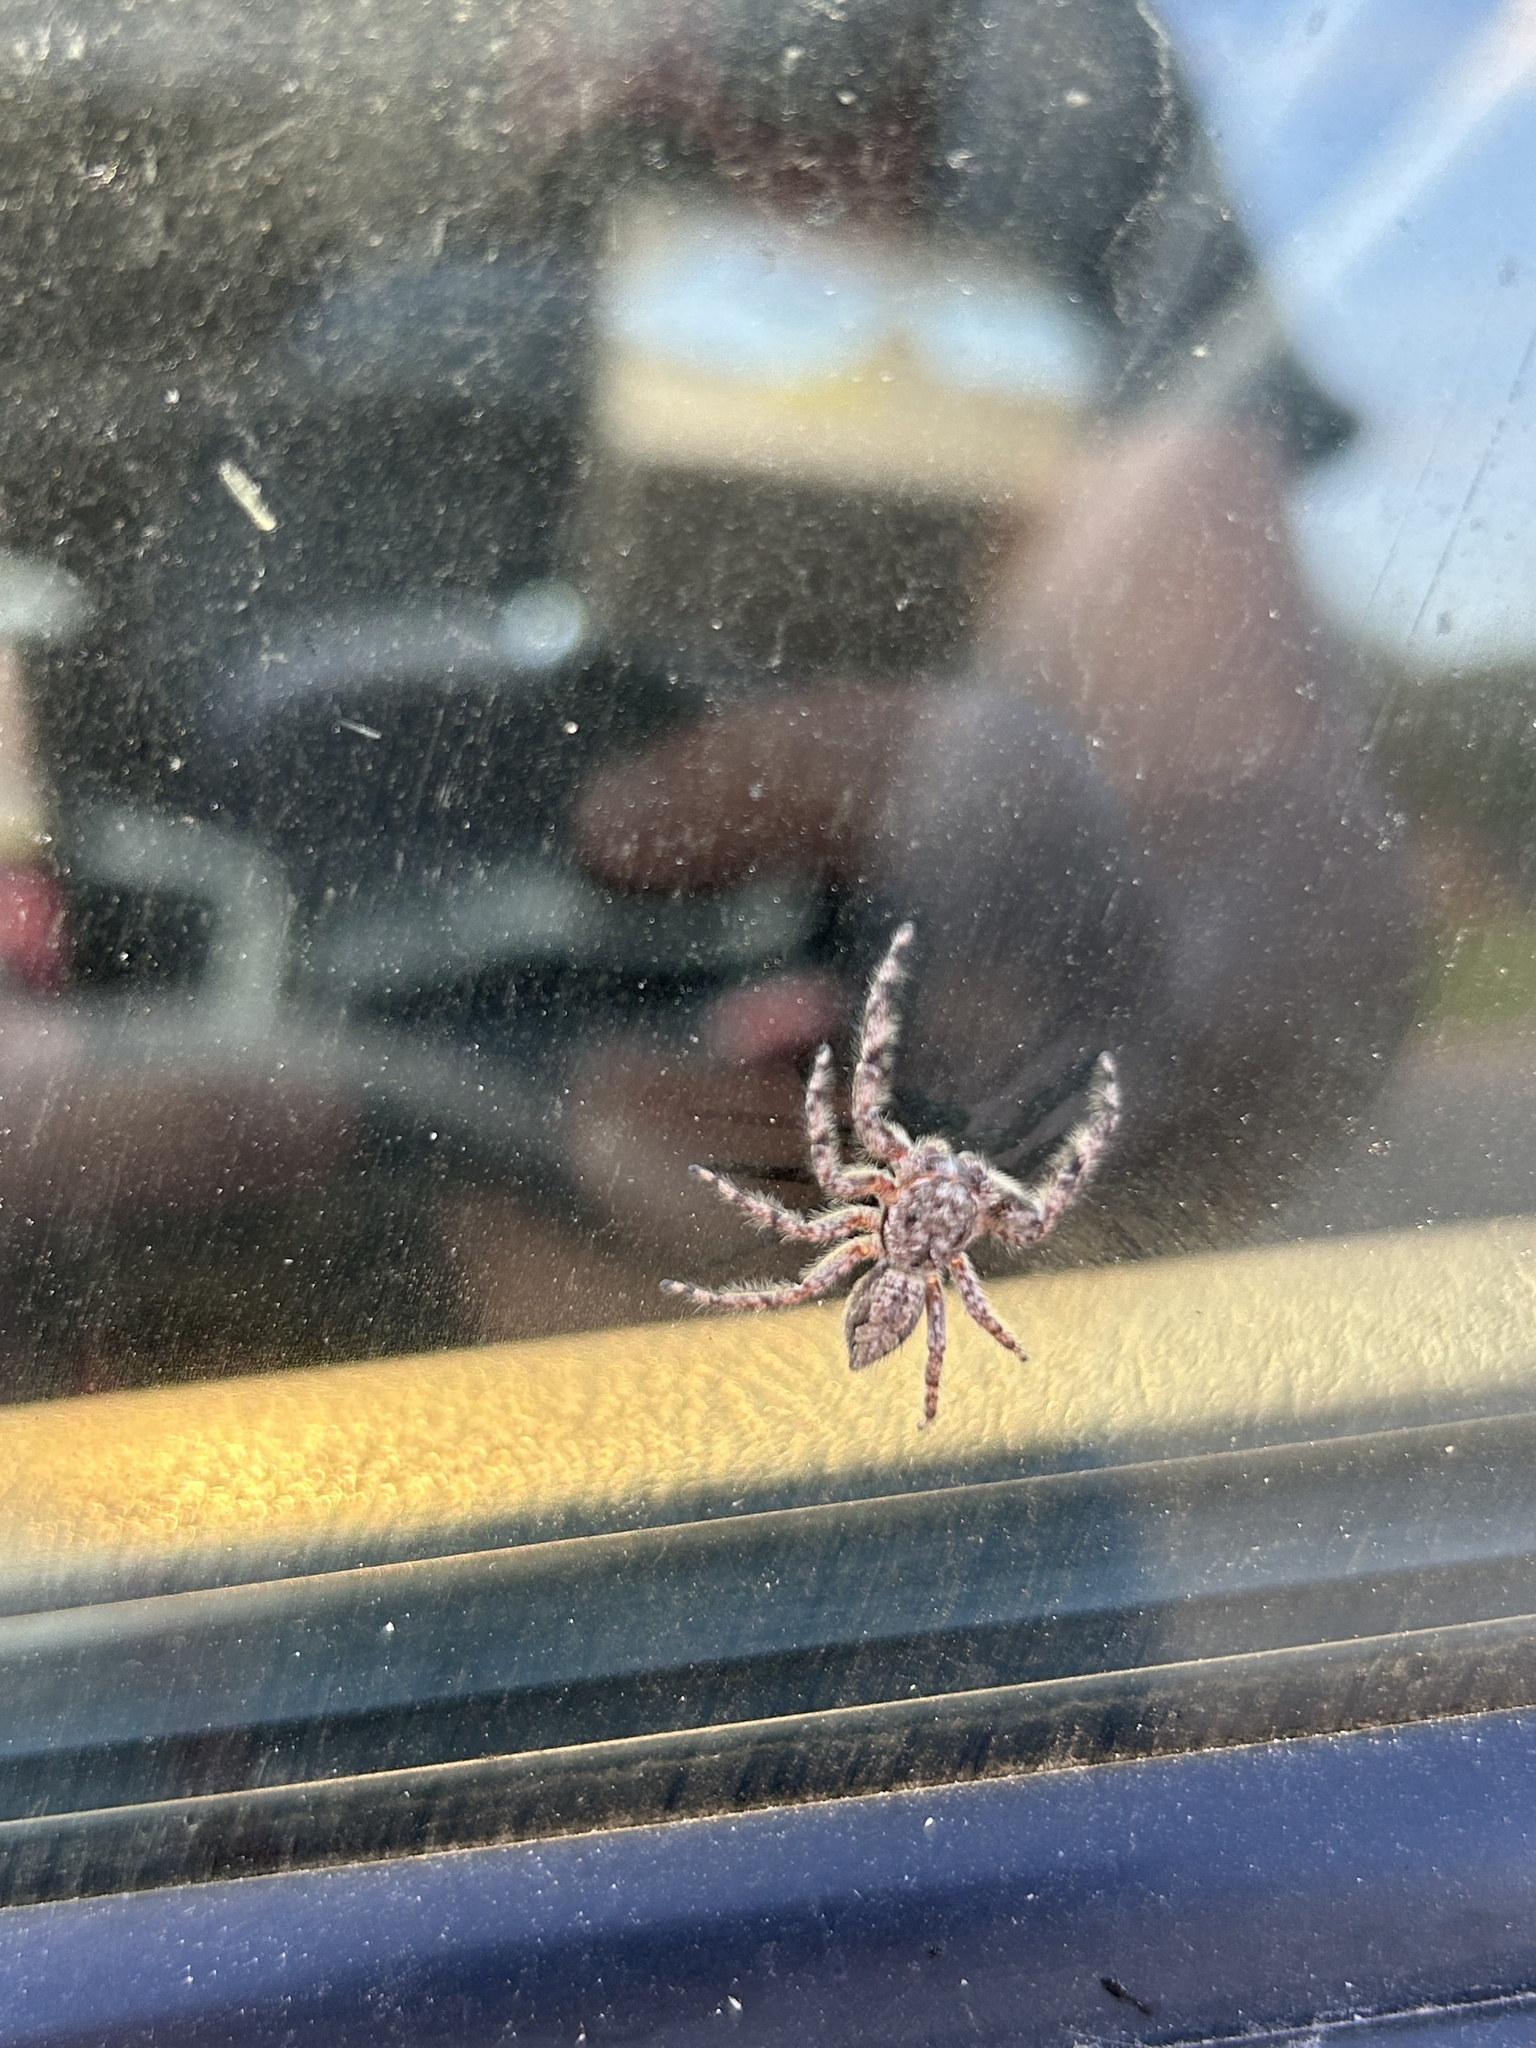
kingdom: Animalia
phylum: Arthropoda
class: Arachnida
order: Araneae
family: Salticidae
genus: Platycryptus
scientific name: Platycryptus undatus
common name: Tan jumping spider
